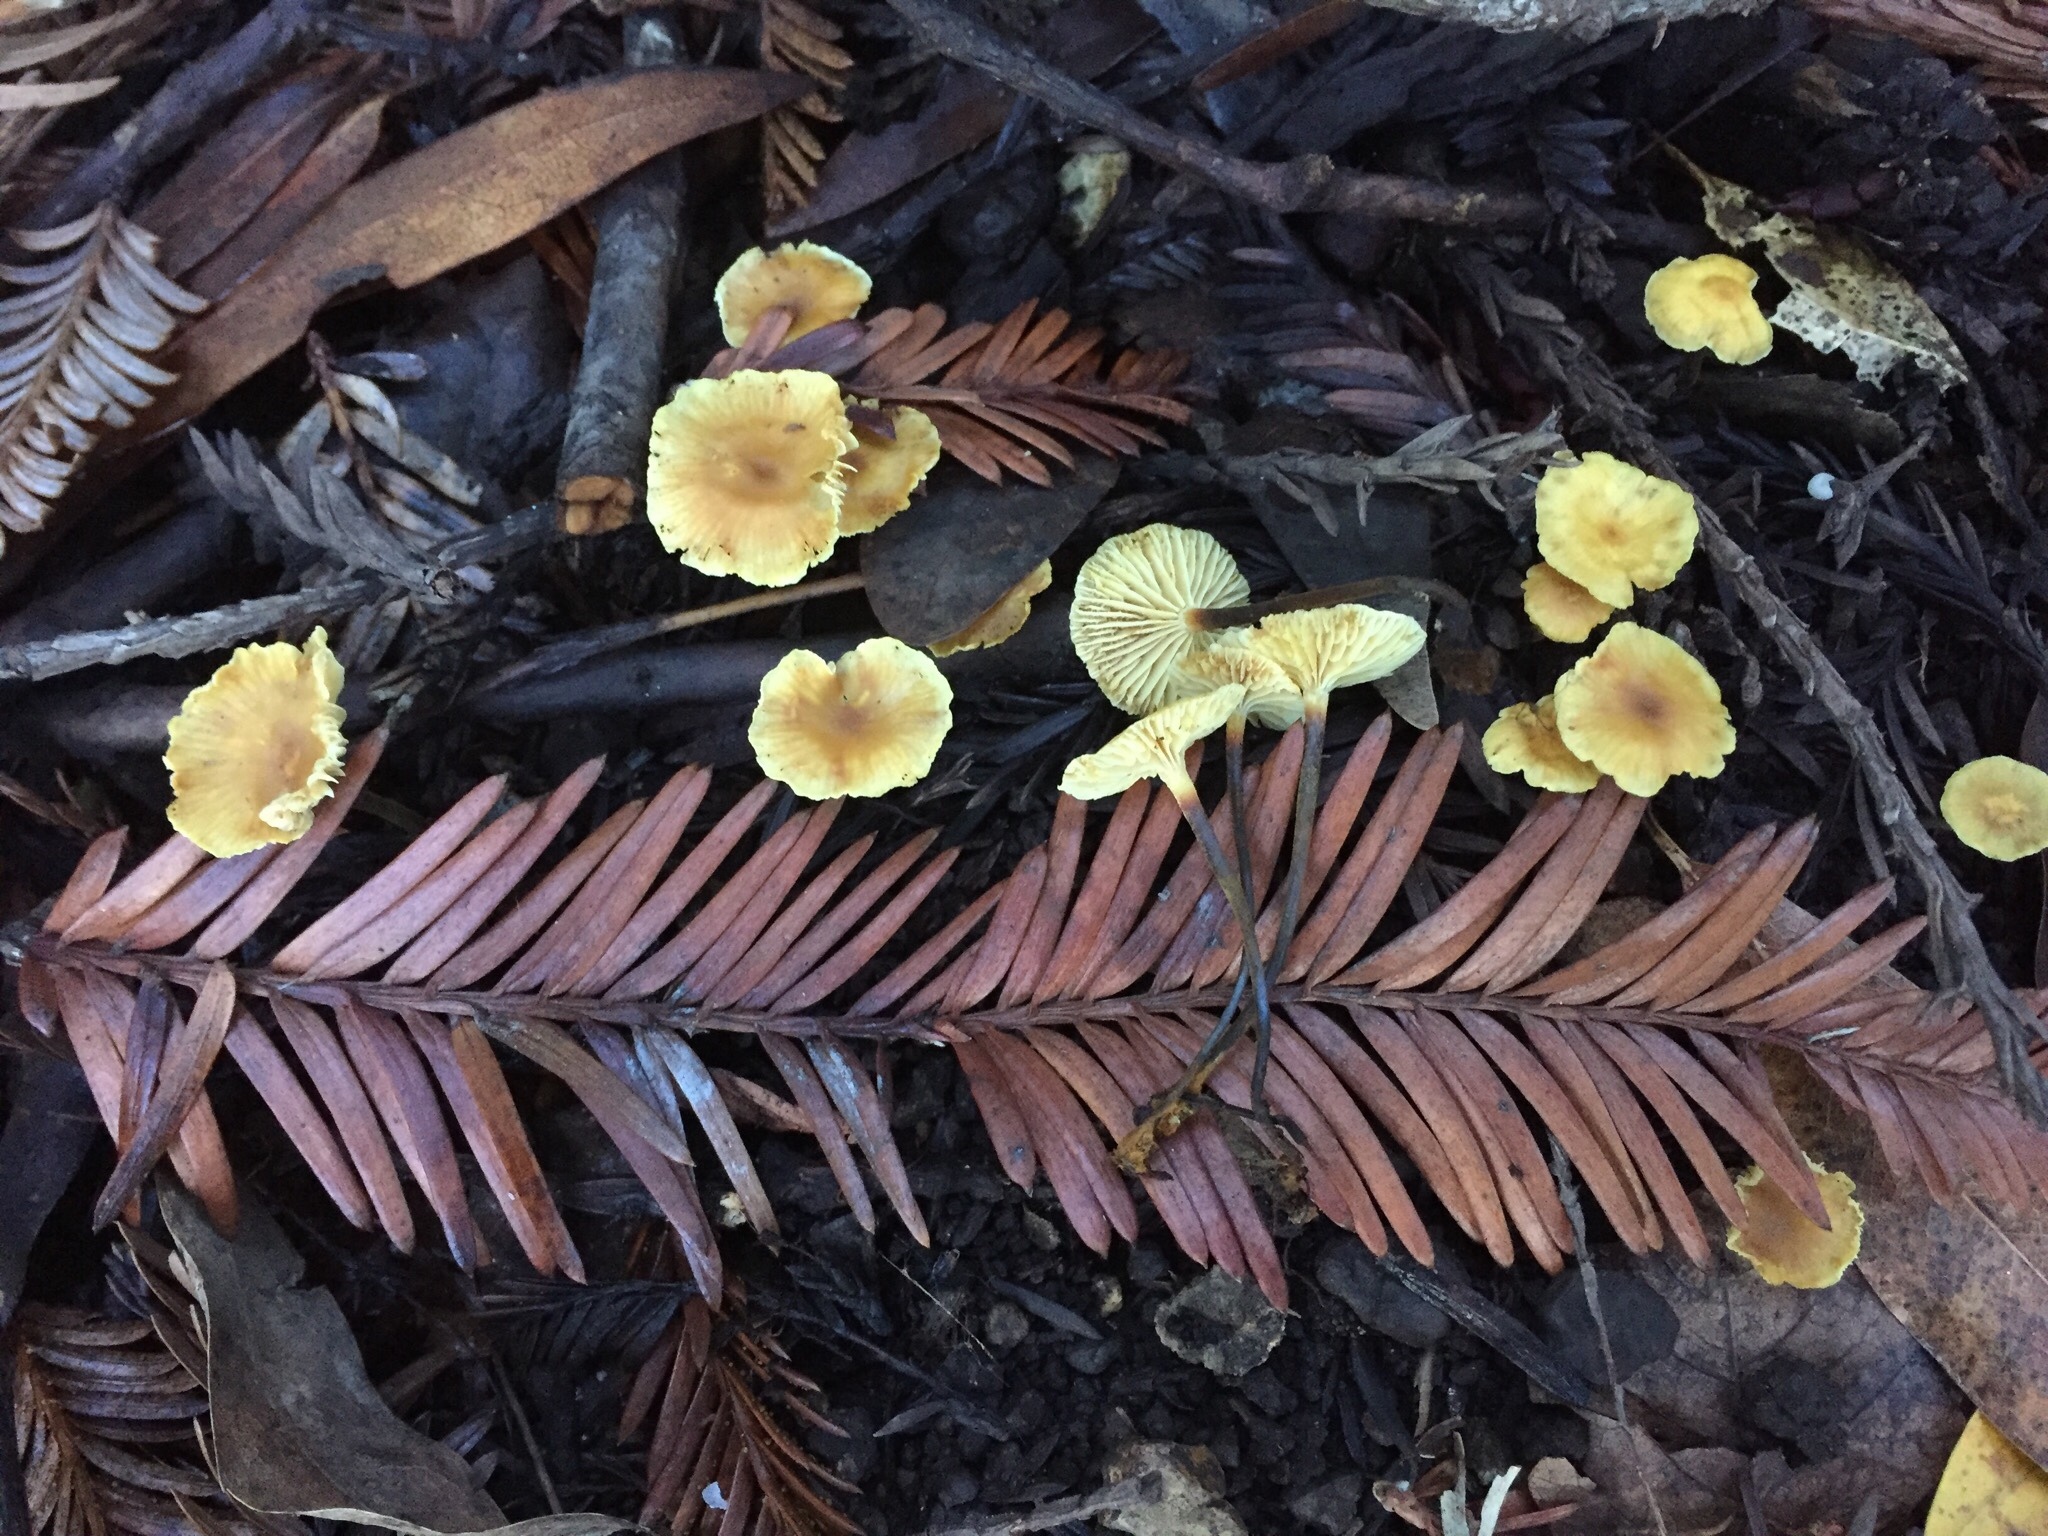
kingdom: Fungi
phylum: Basidiomycota
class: Agaricomycetes
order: Agaricales
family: Mycenaceae
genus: Xeromphalina
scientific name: Xeromphalina cauticinalis
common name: Pinelitter gingertail
